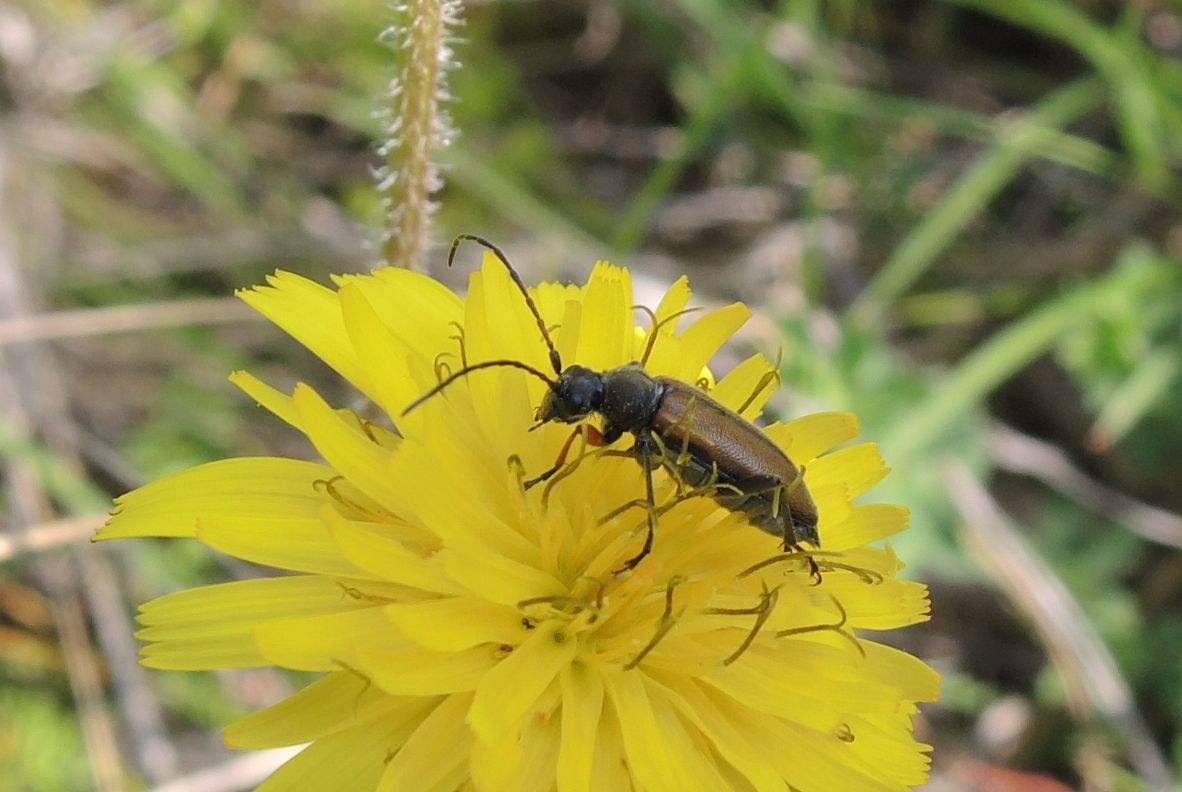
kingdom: Animalia
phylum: Arthropoda
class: Insecta
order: Coleoptera
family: Cerambycidae
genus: Cortodera
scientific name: Cortodera flavimana
